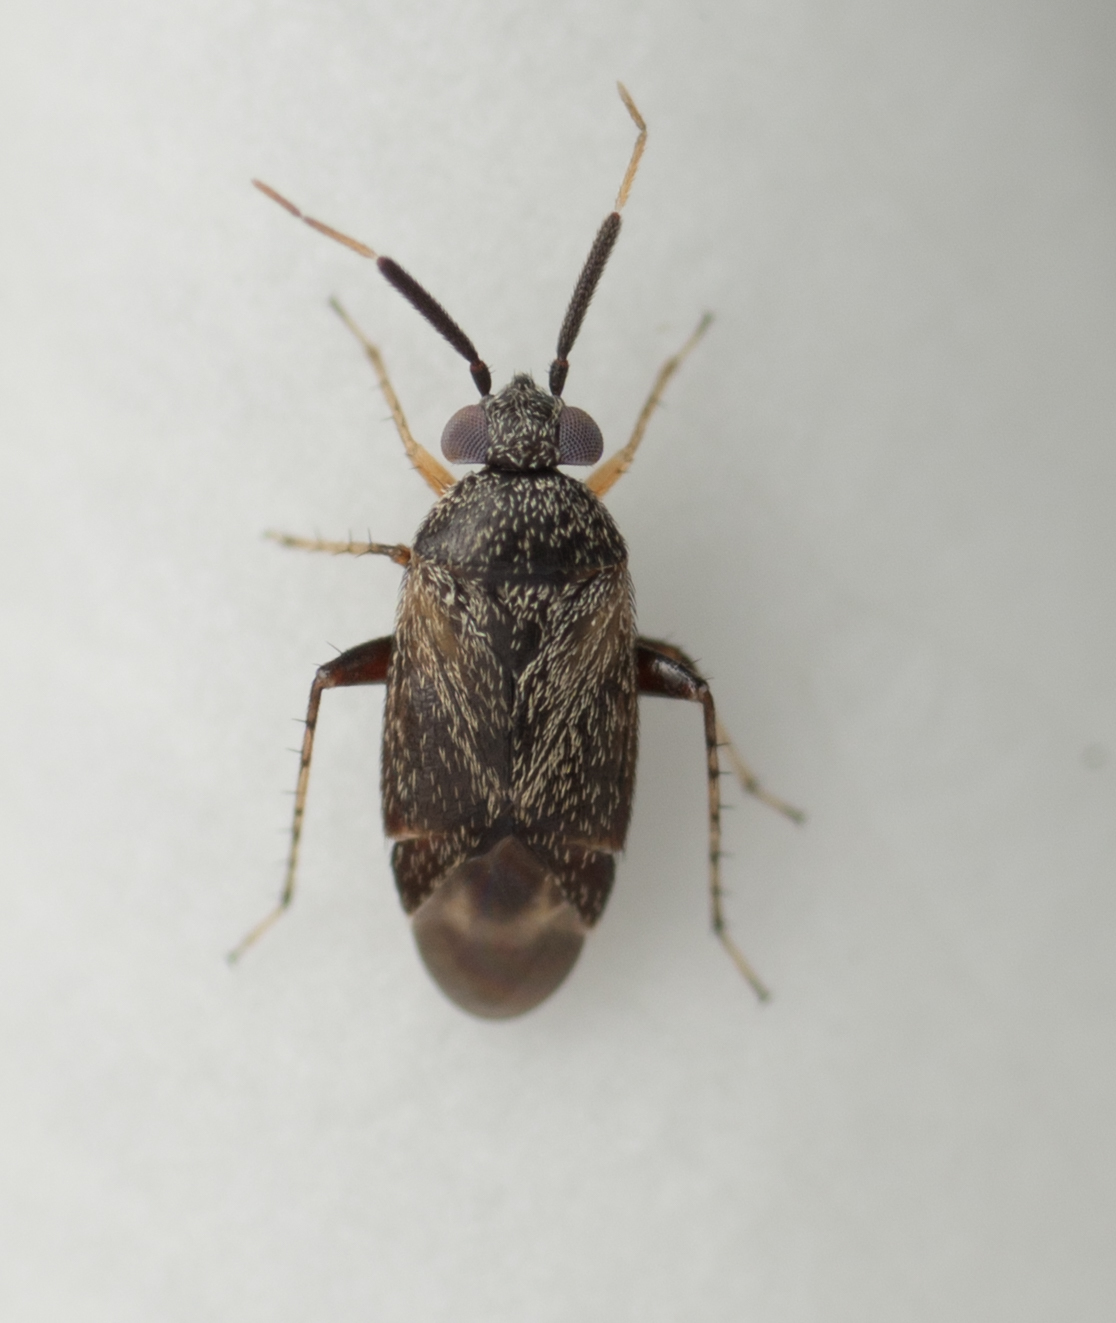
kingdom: Animalia
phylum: Arthropoda
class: Insecta
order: Hemiptera
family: Miridae
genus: Rhinacloa
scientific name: Rhinacloa forticornis
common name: Brown cotton mirid
